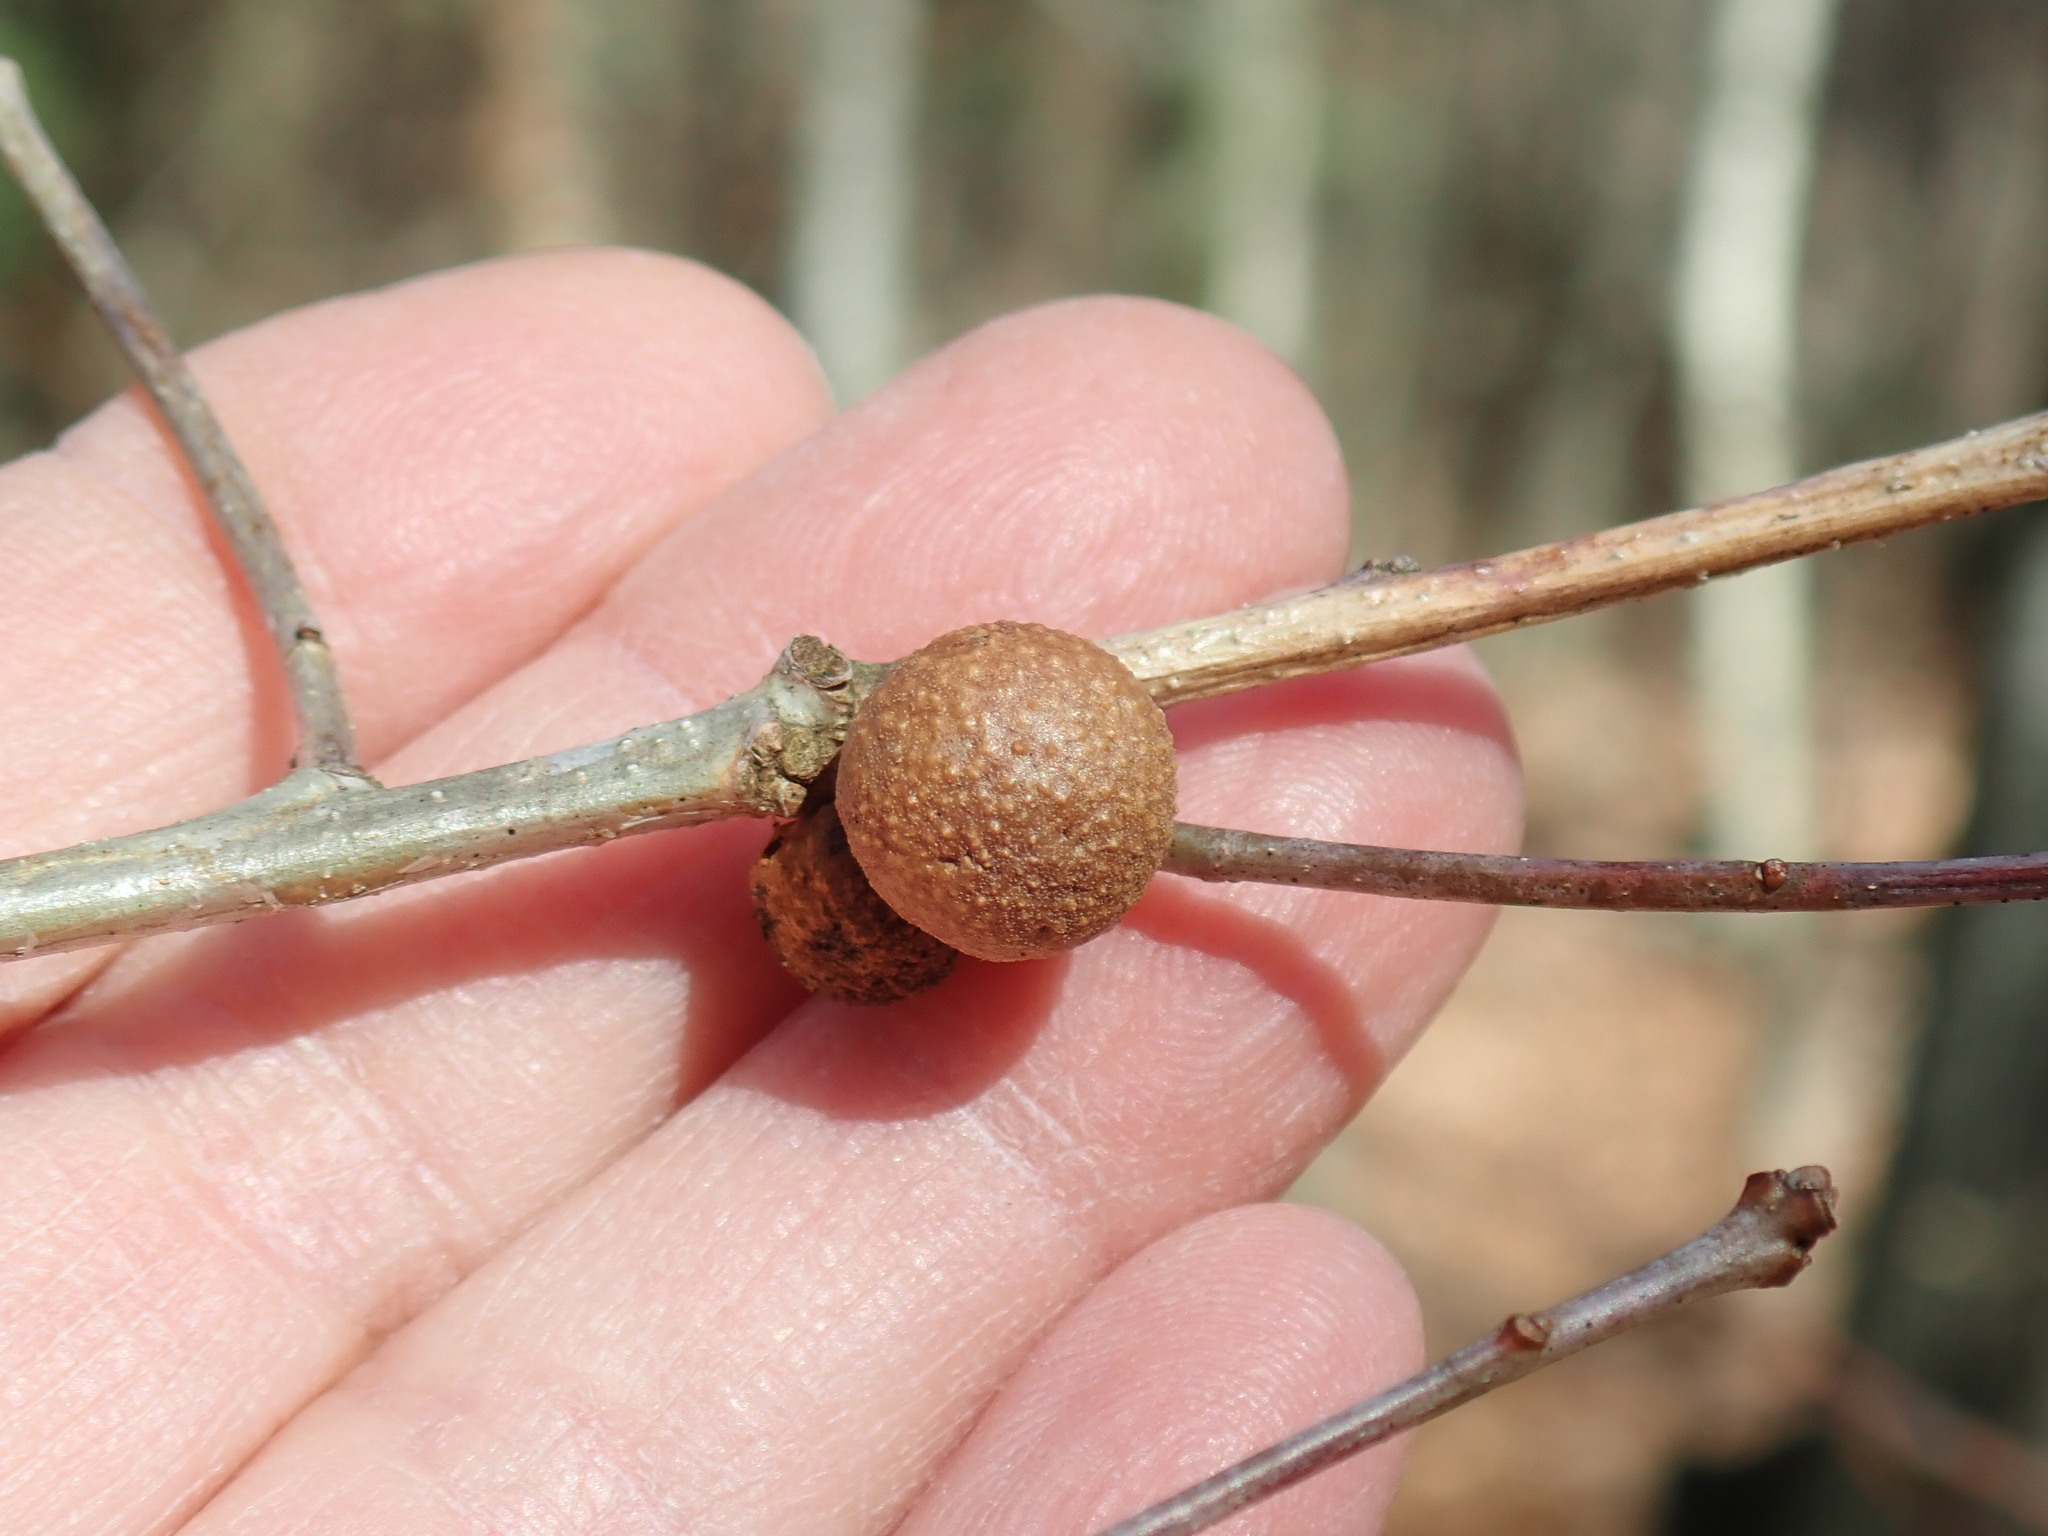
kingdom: Animalia
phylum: Arthropoda
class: Insecta
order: Hymenoptera
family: Cynipidae
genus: Disholcaspis
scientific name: Disholcaspis quercusglobulus
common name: Round bullet gall wasp
